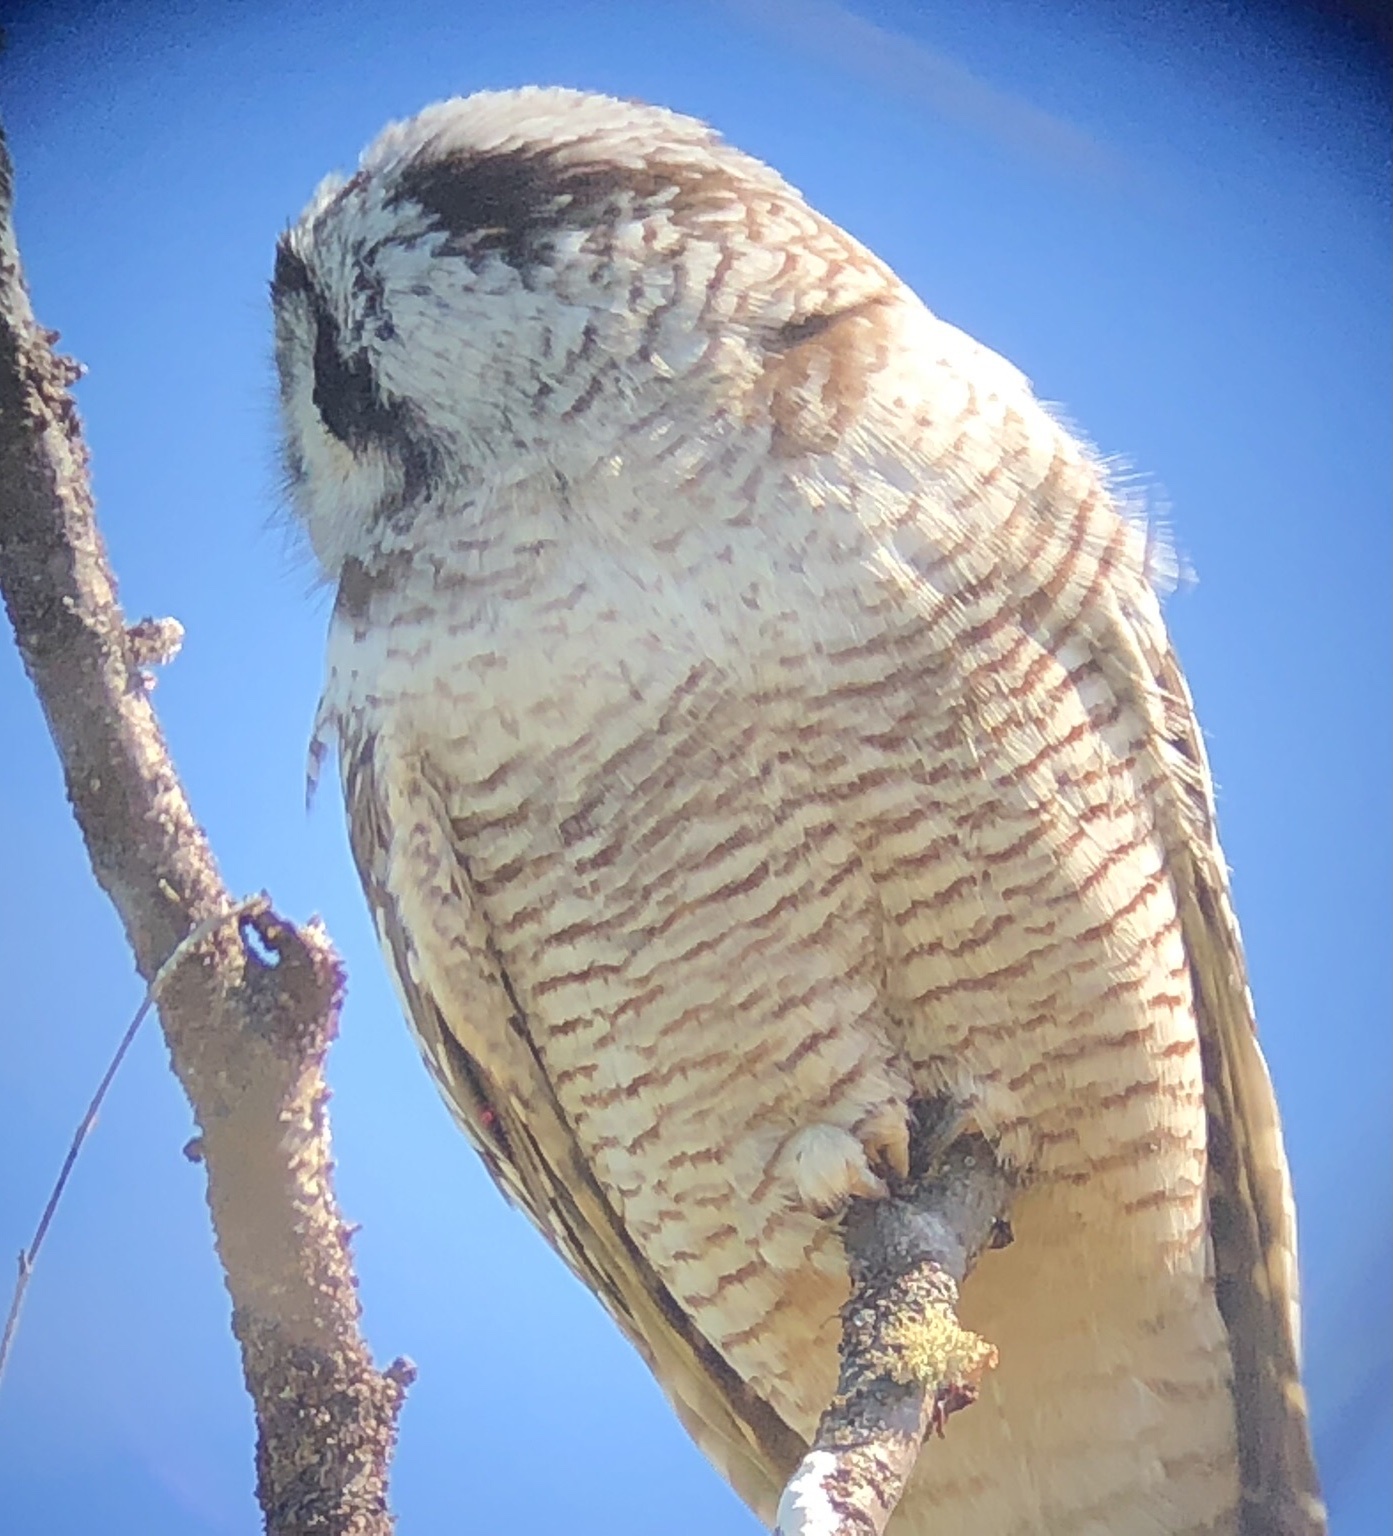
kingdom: Animalia
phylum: Chordata
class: Aves
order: Strigiformes
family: Strigidae
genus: Surnia
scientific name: Surnia ulula
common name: Northern hawk-owl
